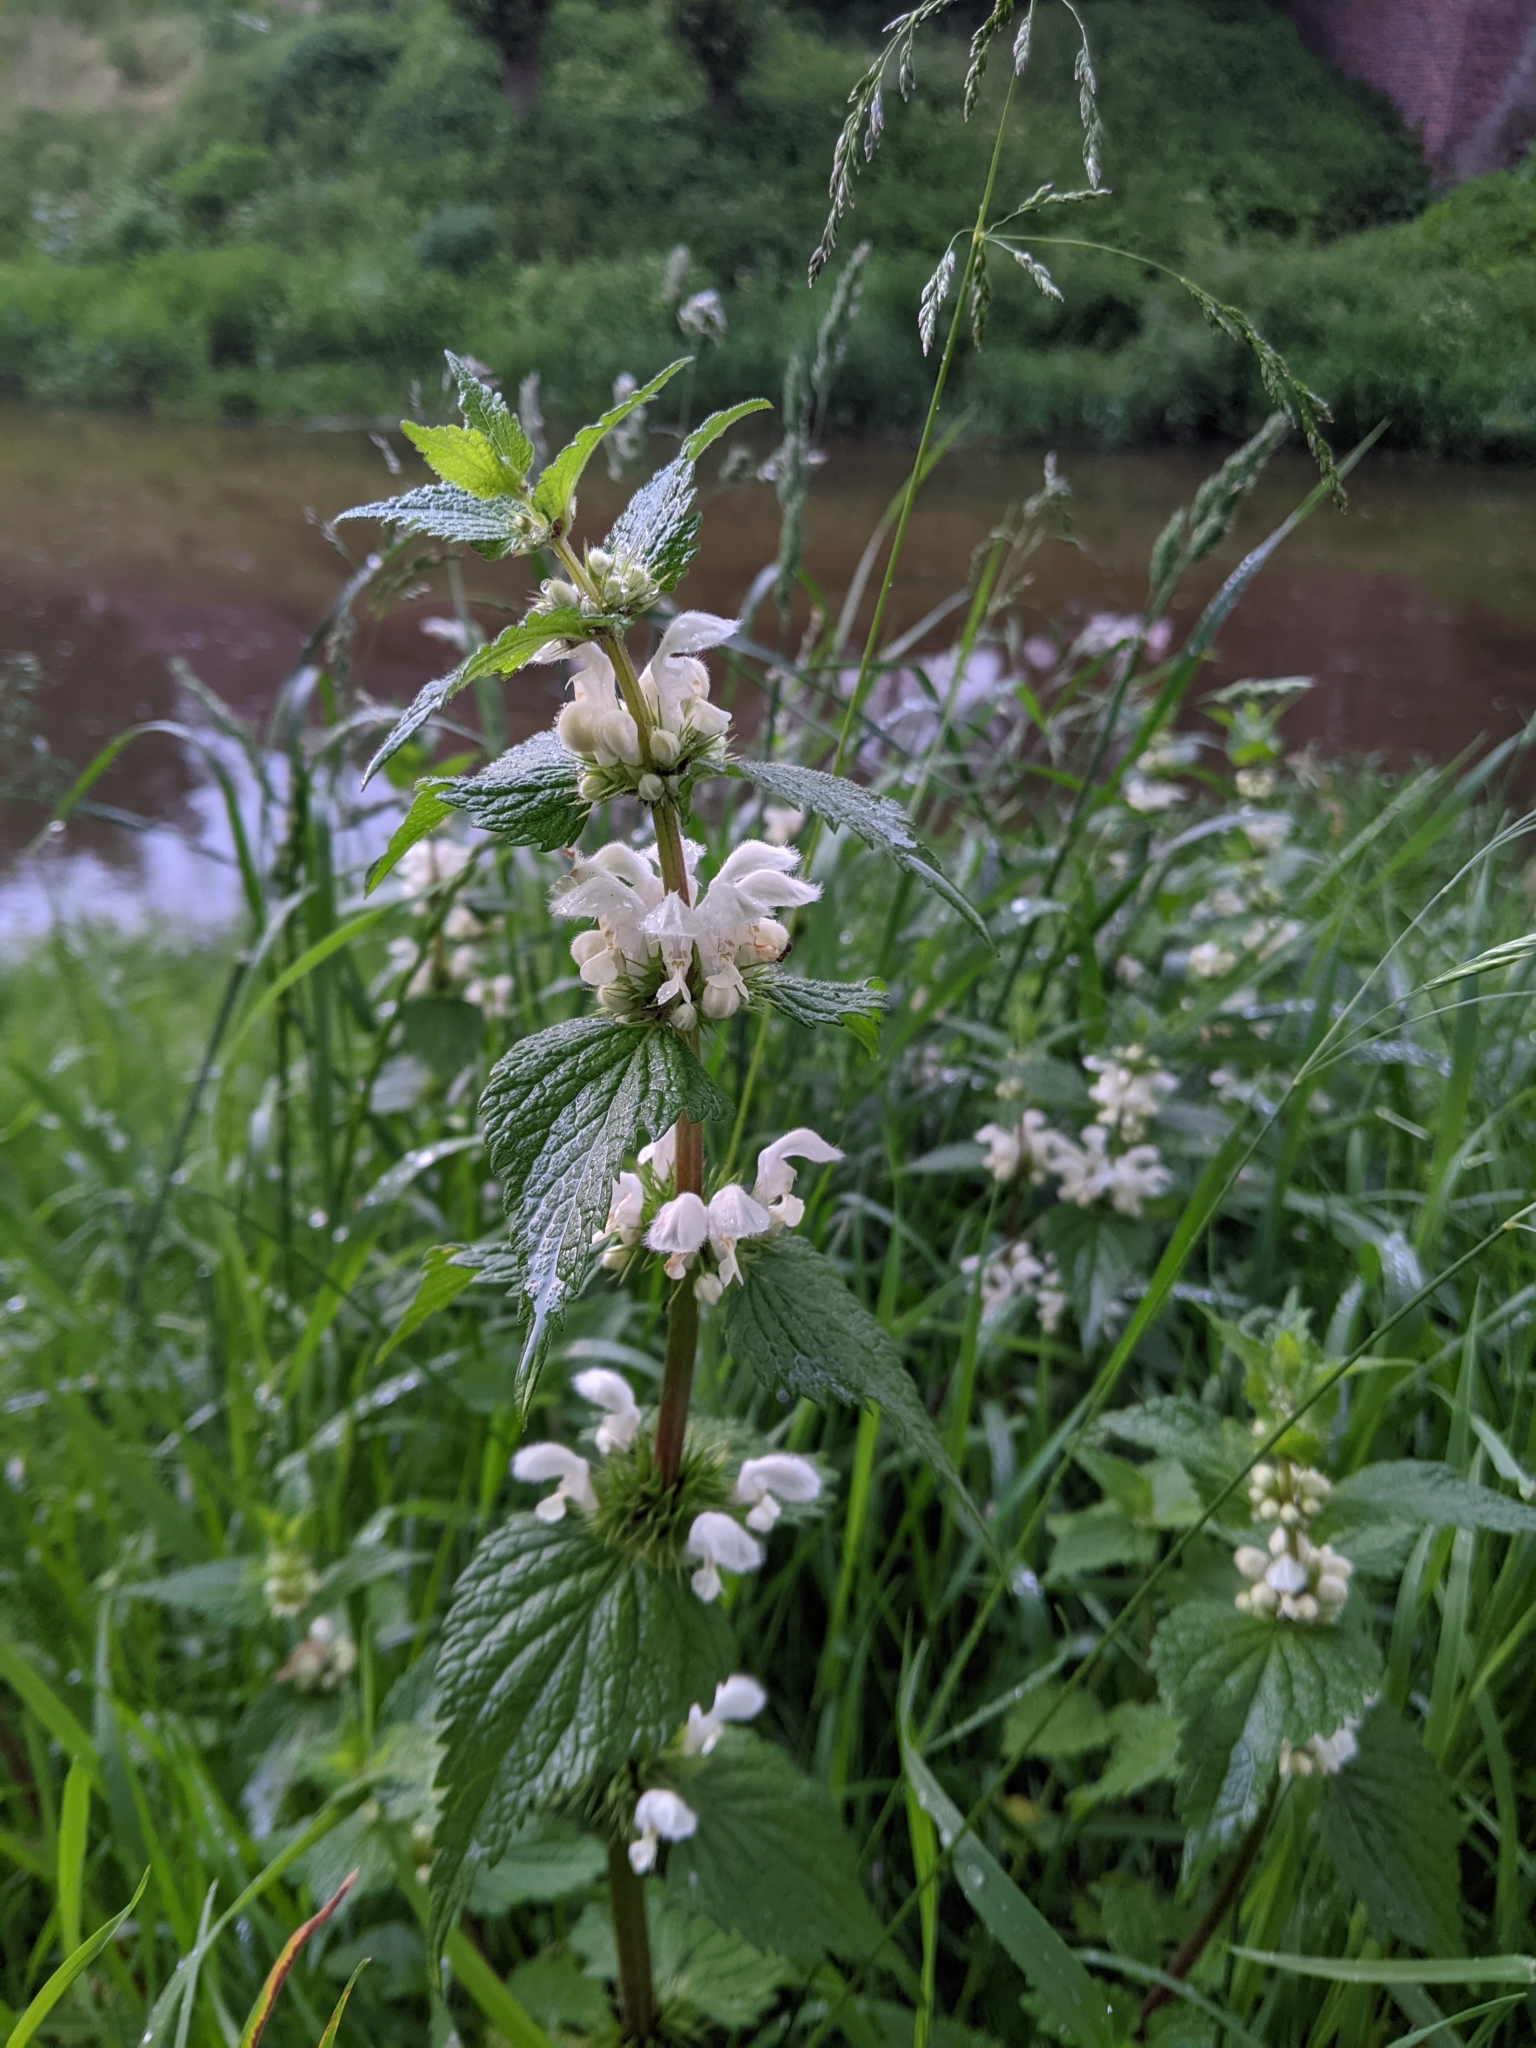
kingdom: Plantae
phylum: Tracheophyta
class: Magnoliopsida
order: Lamiales
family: Lamiaceae
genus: Lamium
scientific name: Lamium album
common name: White dead-nettle
